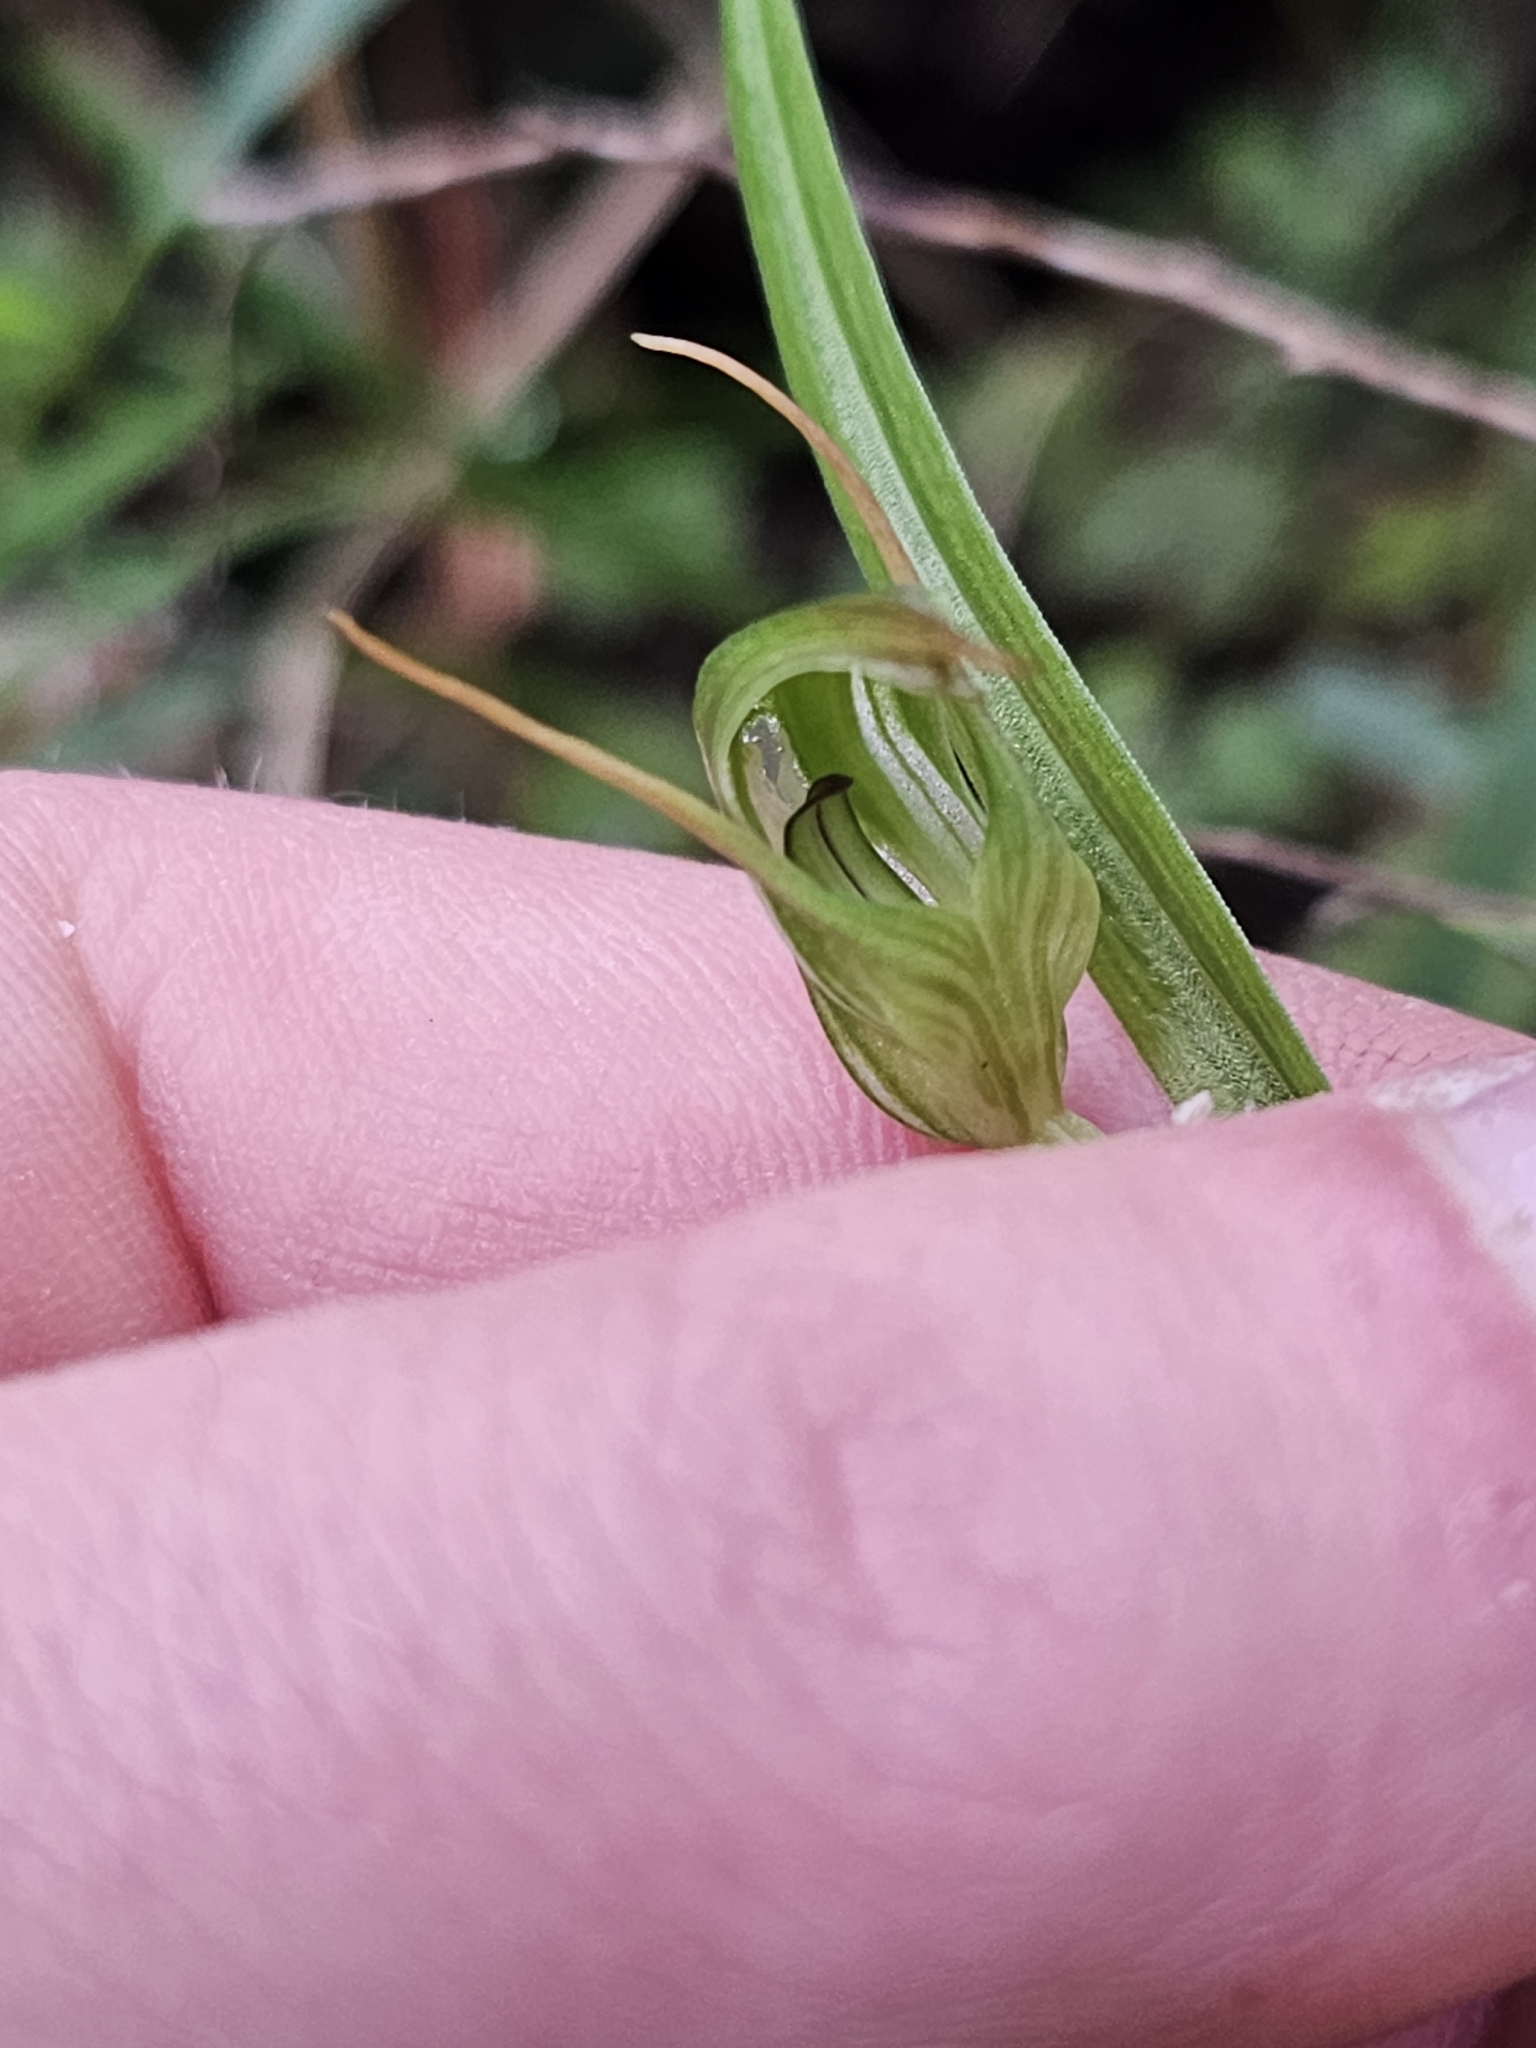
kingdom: Plantae
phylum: Tracheophyta
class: Liliopsida
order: Asparagales
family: Orchidaceae
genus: Pterostylis
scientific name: Pterostylis graminea
